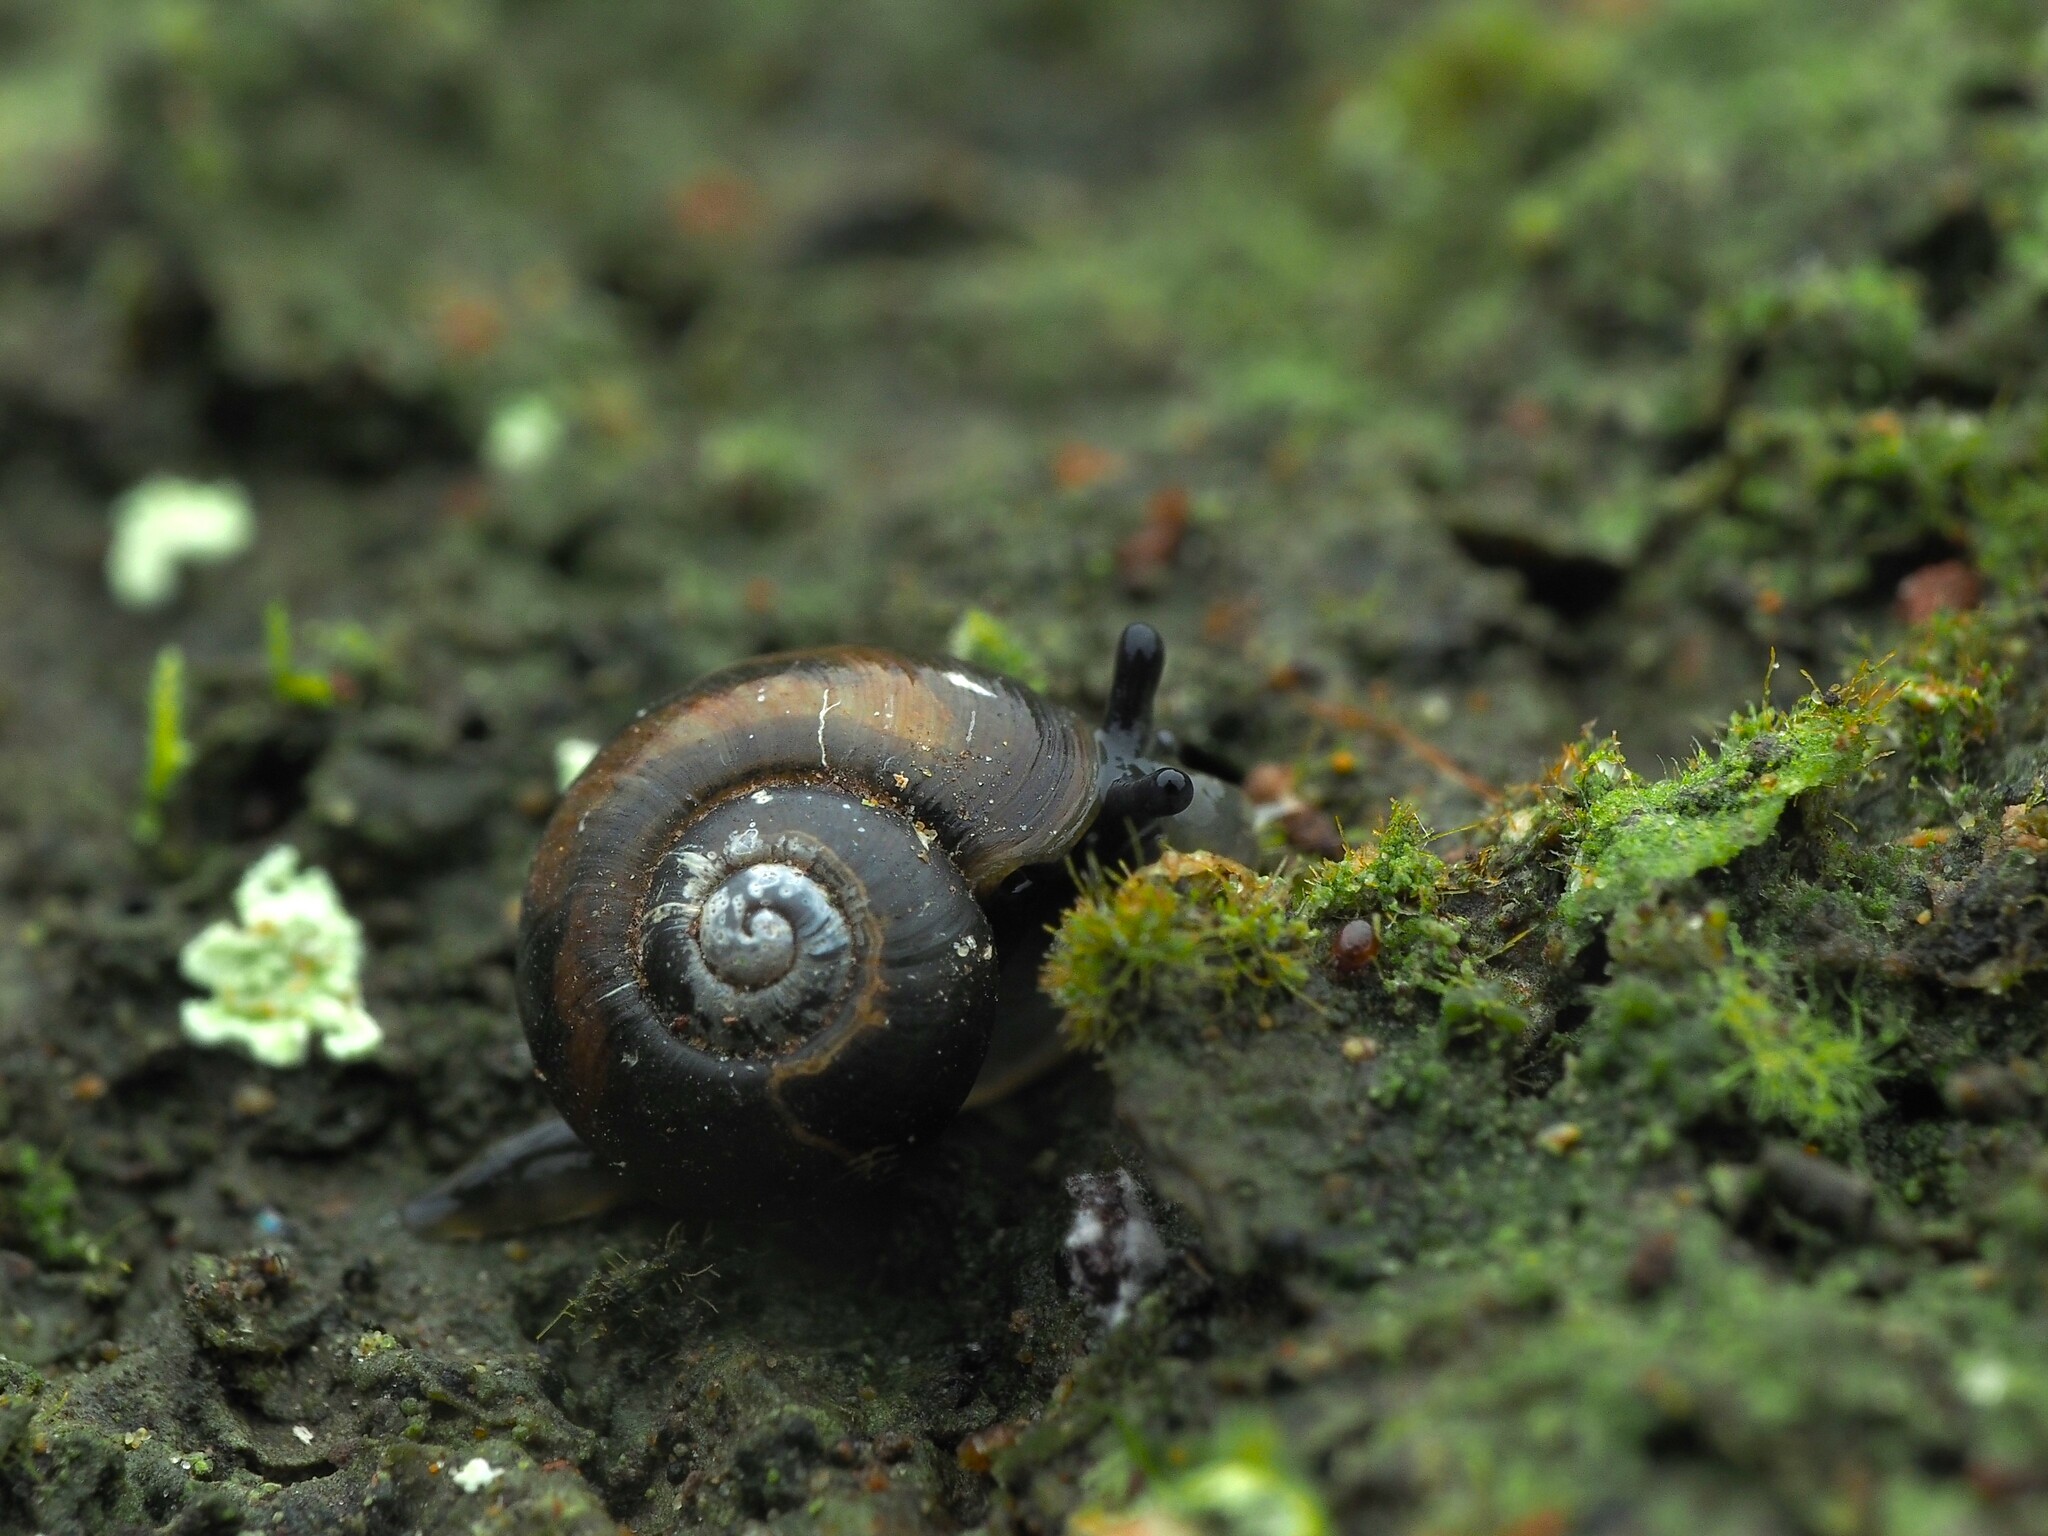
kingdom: Animalia
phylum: Mollusca
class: Gastropoda
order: Stylommatophora
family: Charopidae
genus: Flammulina
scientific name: Flammulina perdita
